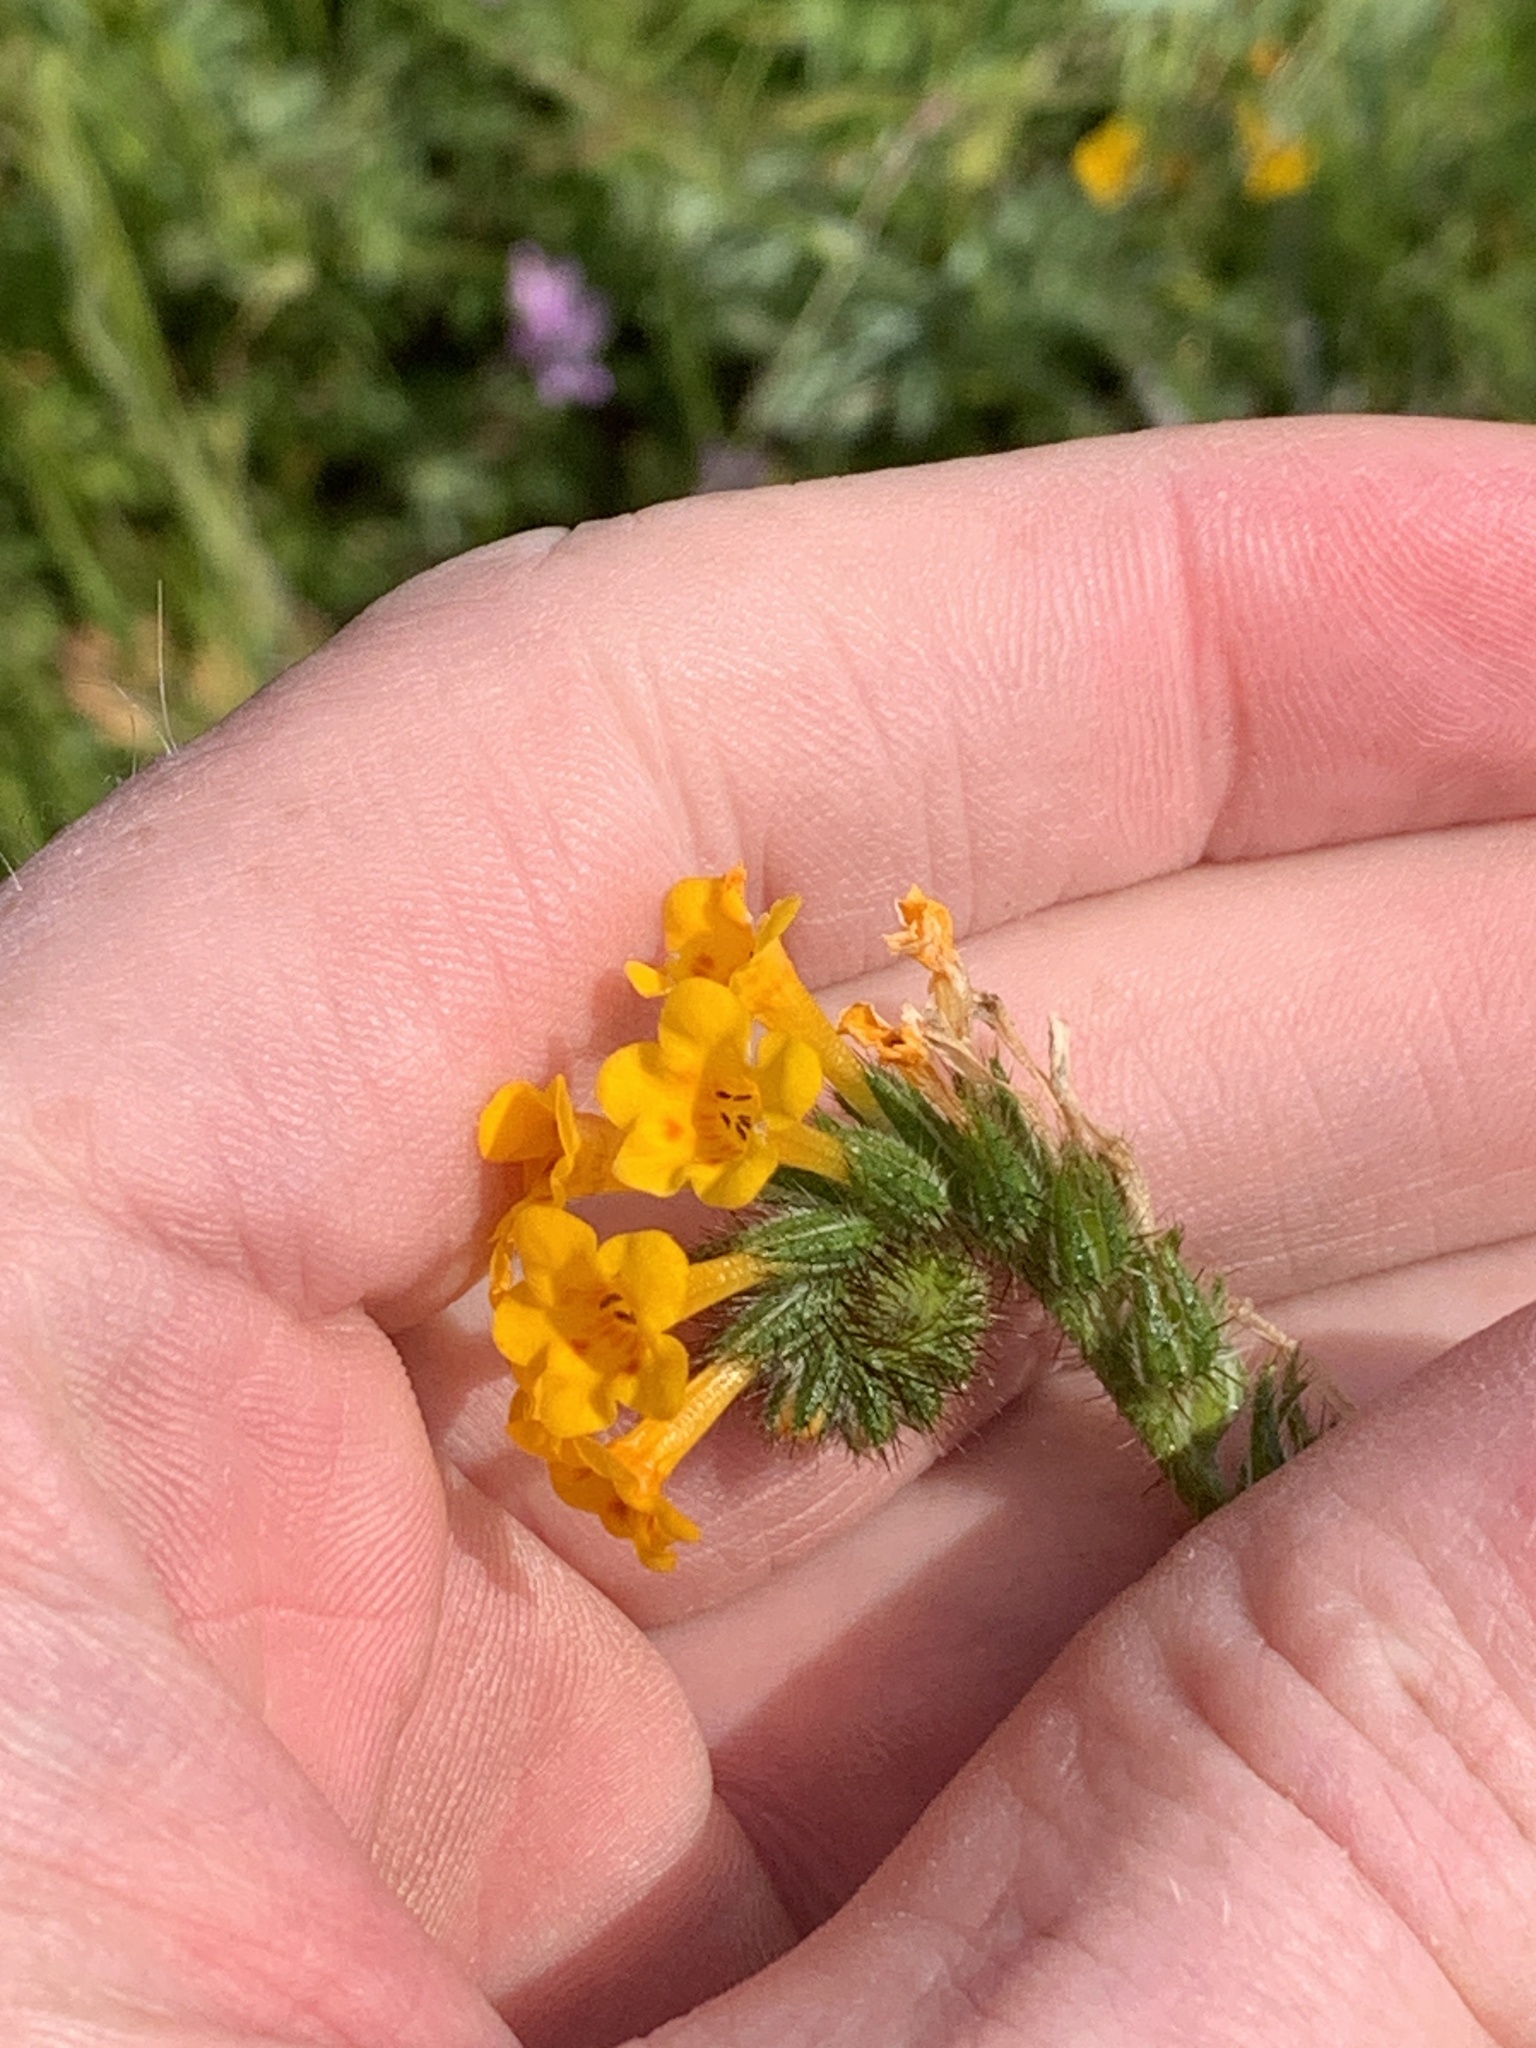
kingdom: Plantae
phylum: Tracheophyta
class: Magnoliopsida
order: Boraginales
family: Boraginaceae
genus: Amsinckia
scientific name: Amsinckia menziesii
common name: Menzies' fiddleneck
